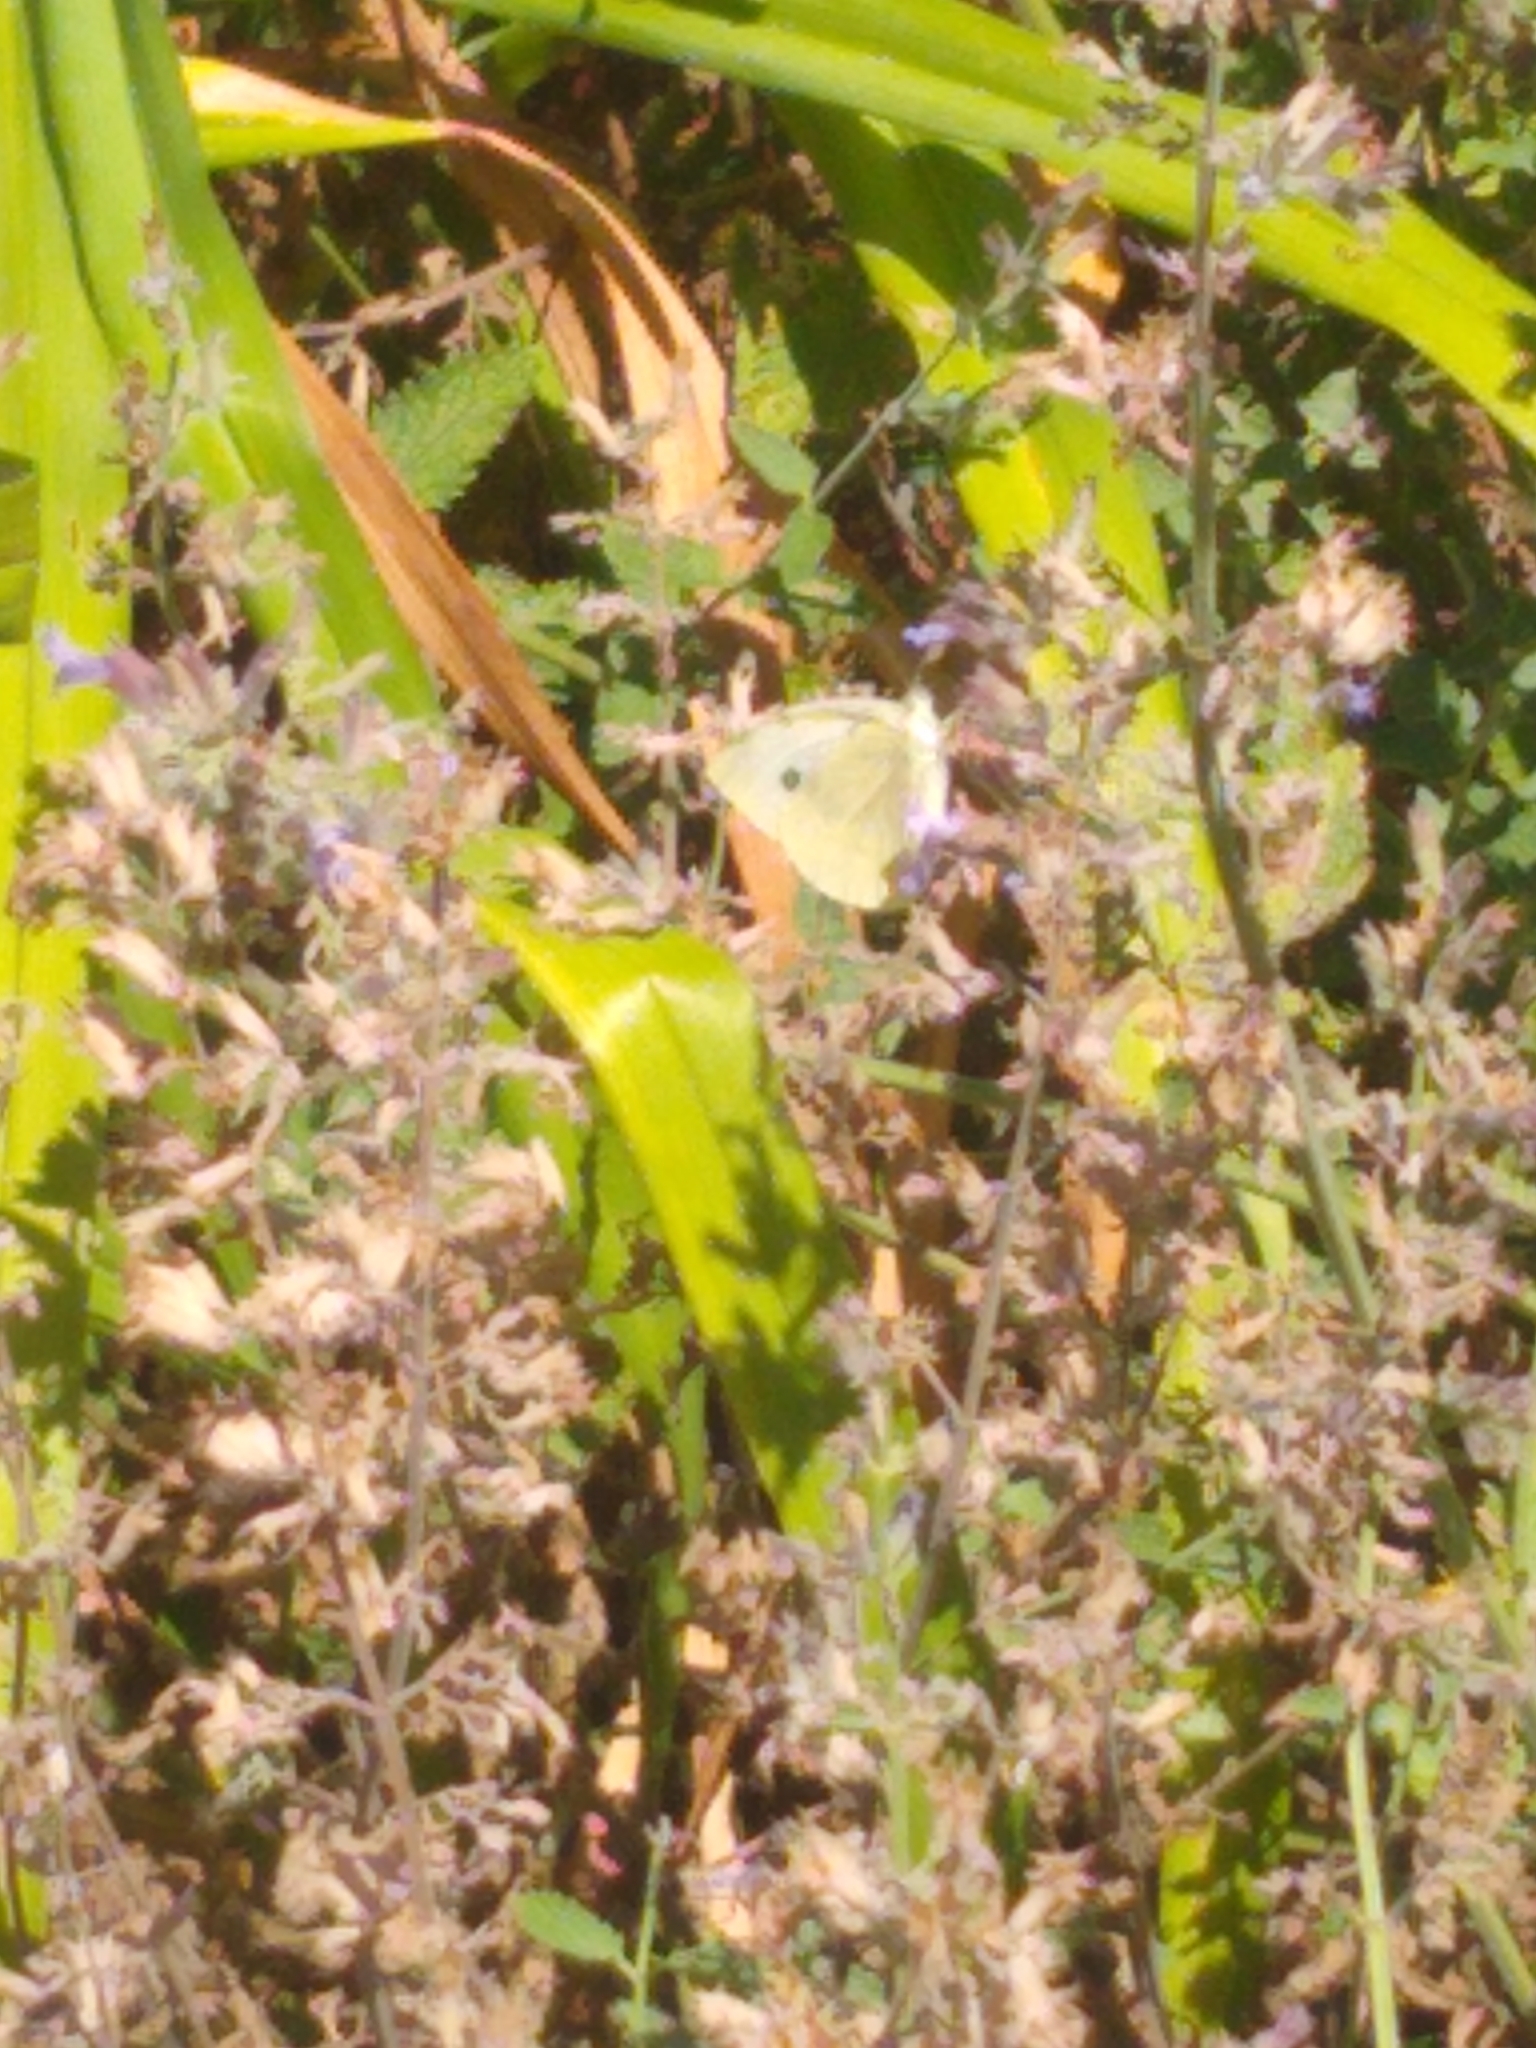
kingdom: Animalia
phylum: Arthropoda
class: Insecta
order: Lepidoptera
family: Pieridae
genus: Pieris
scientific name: Pieris rapae
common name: Small white
